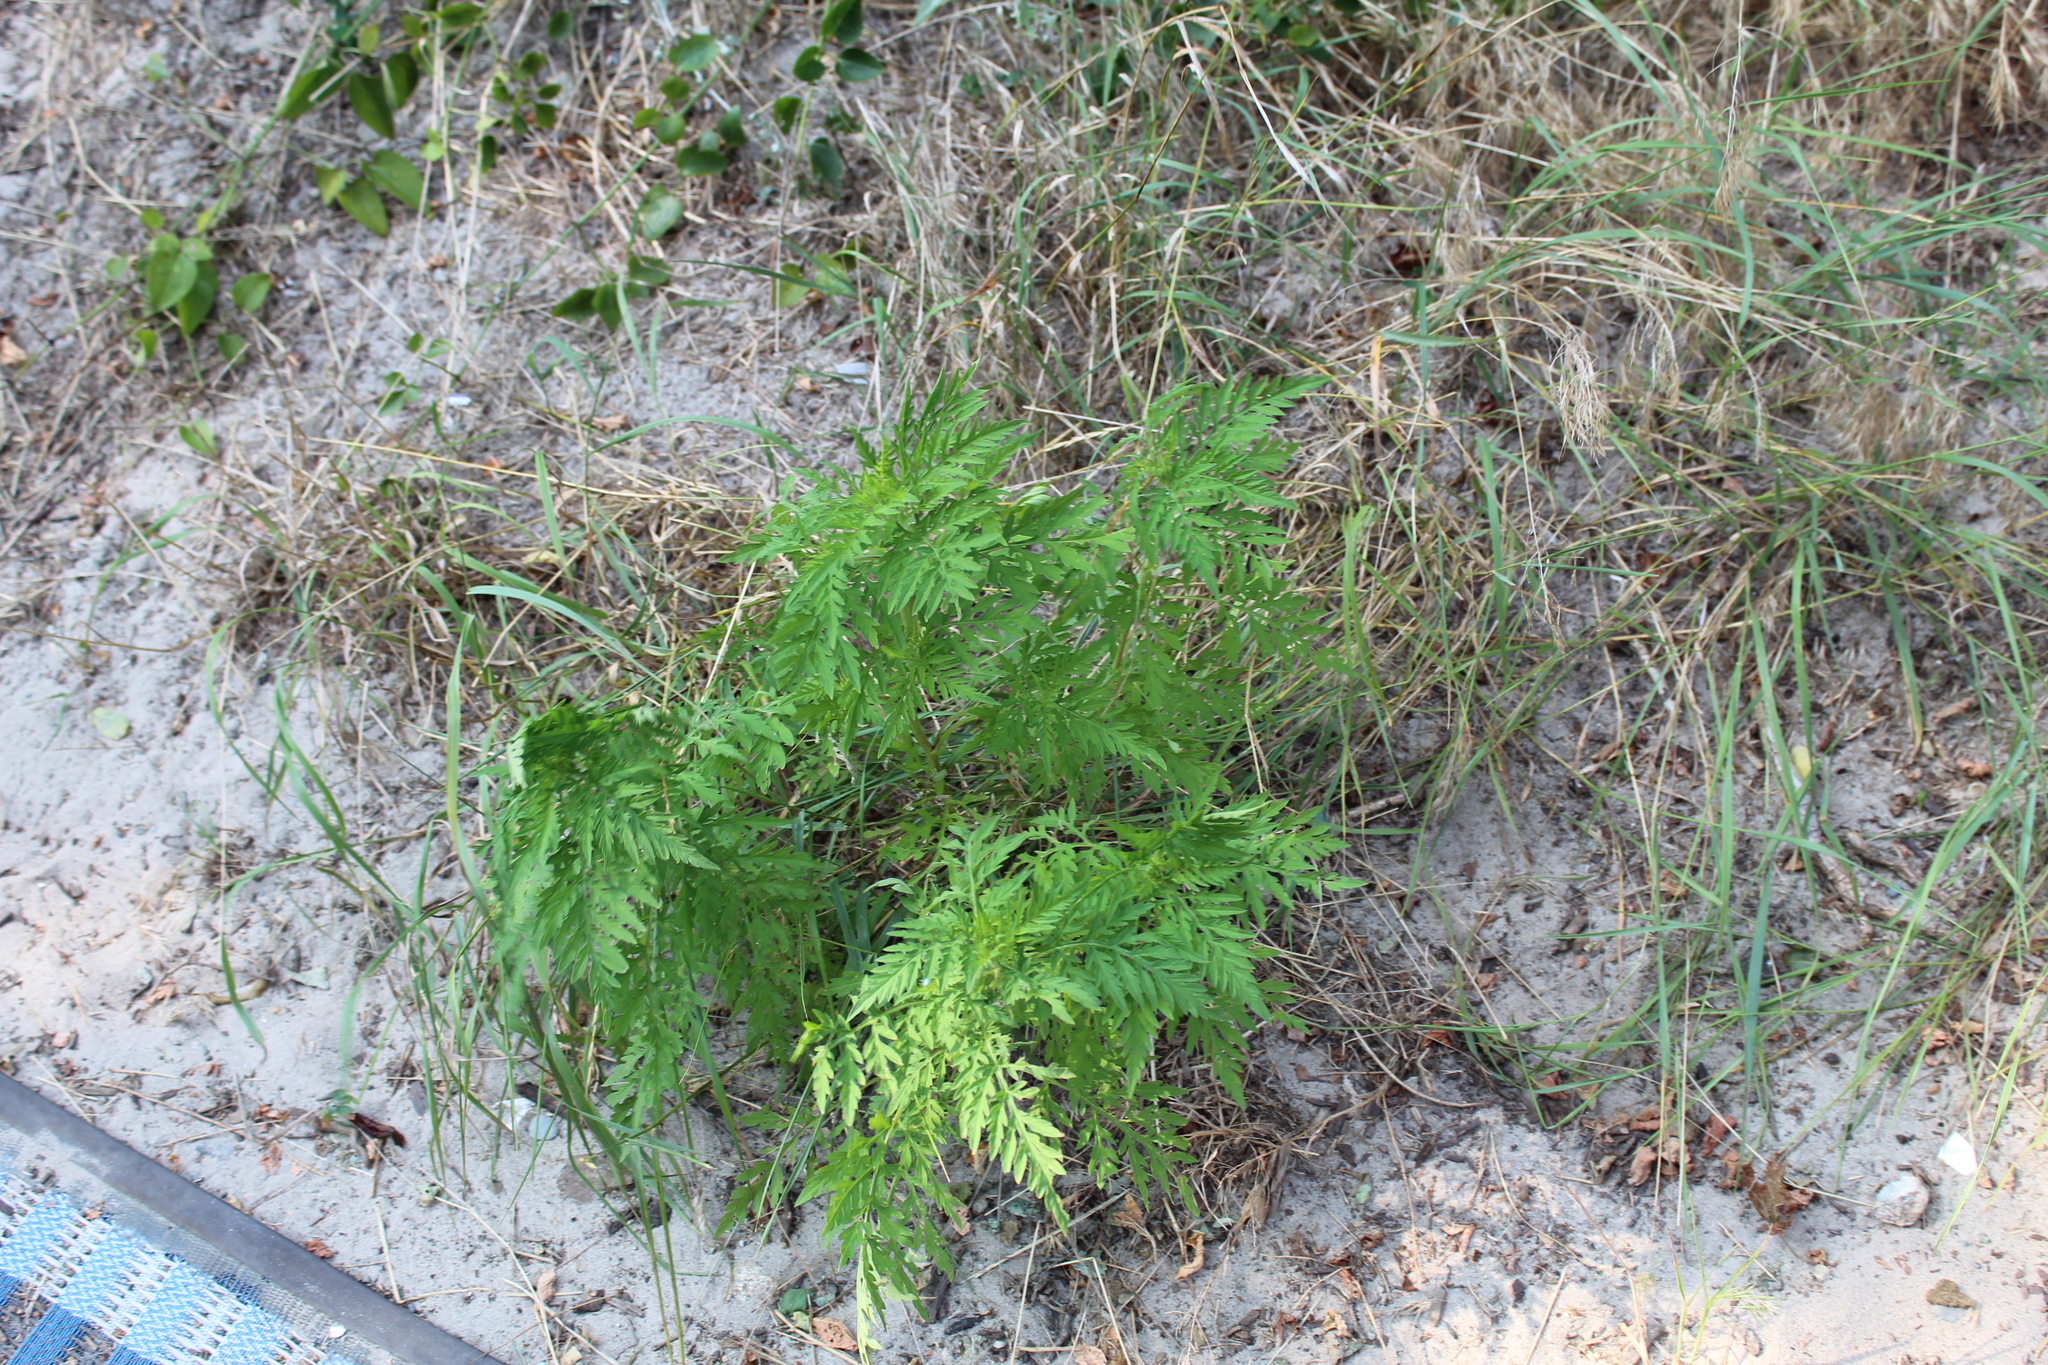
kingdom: Plantae
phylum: Tracheophyta
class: Magnoliopsida
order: Asterales
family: Asteraceae
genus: Ambrosia
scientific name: Ambrosia artemisiifolia
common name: Annual ragweed
